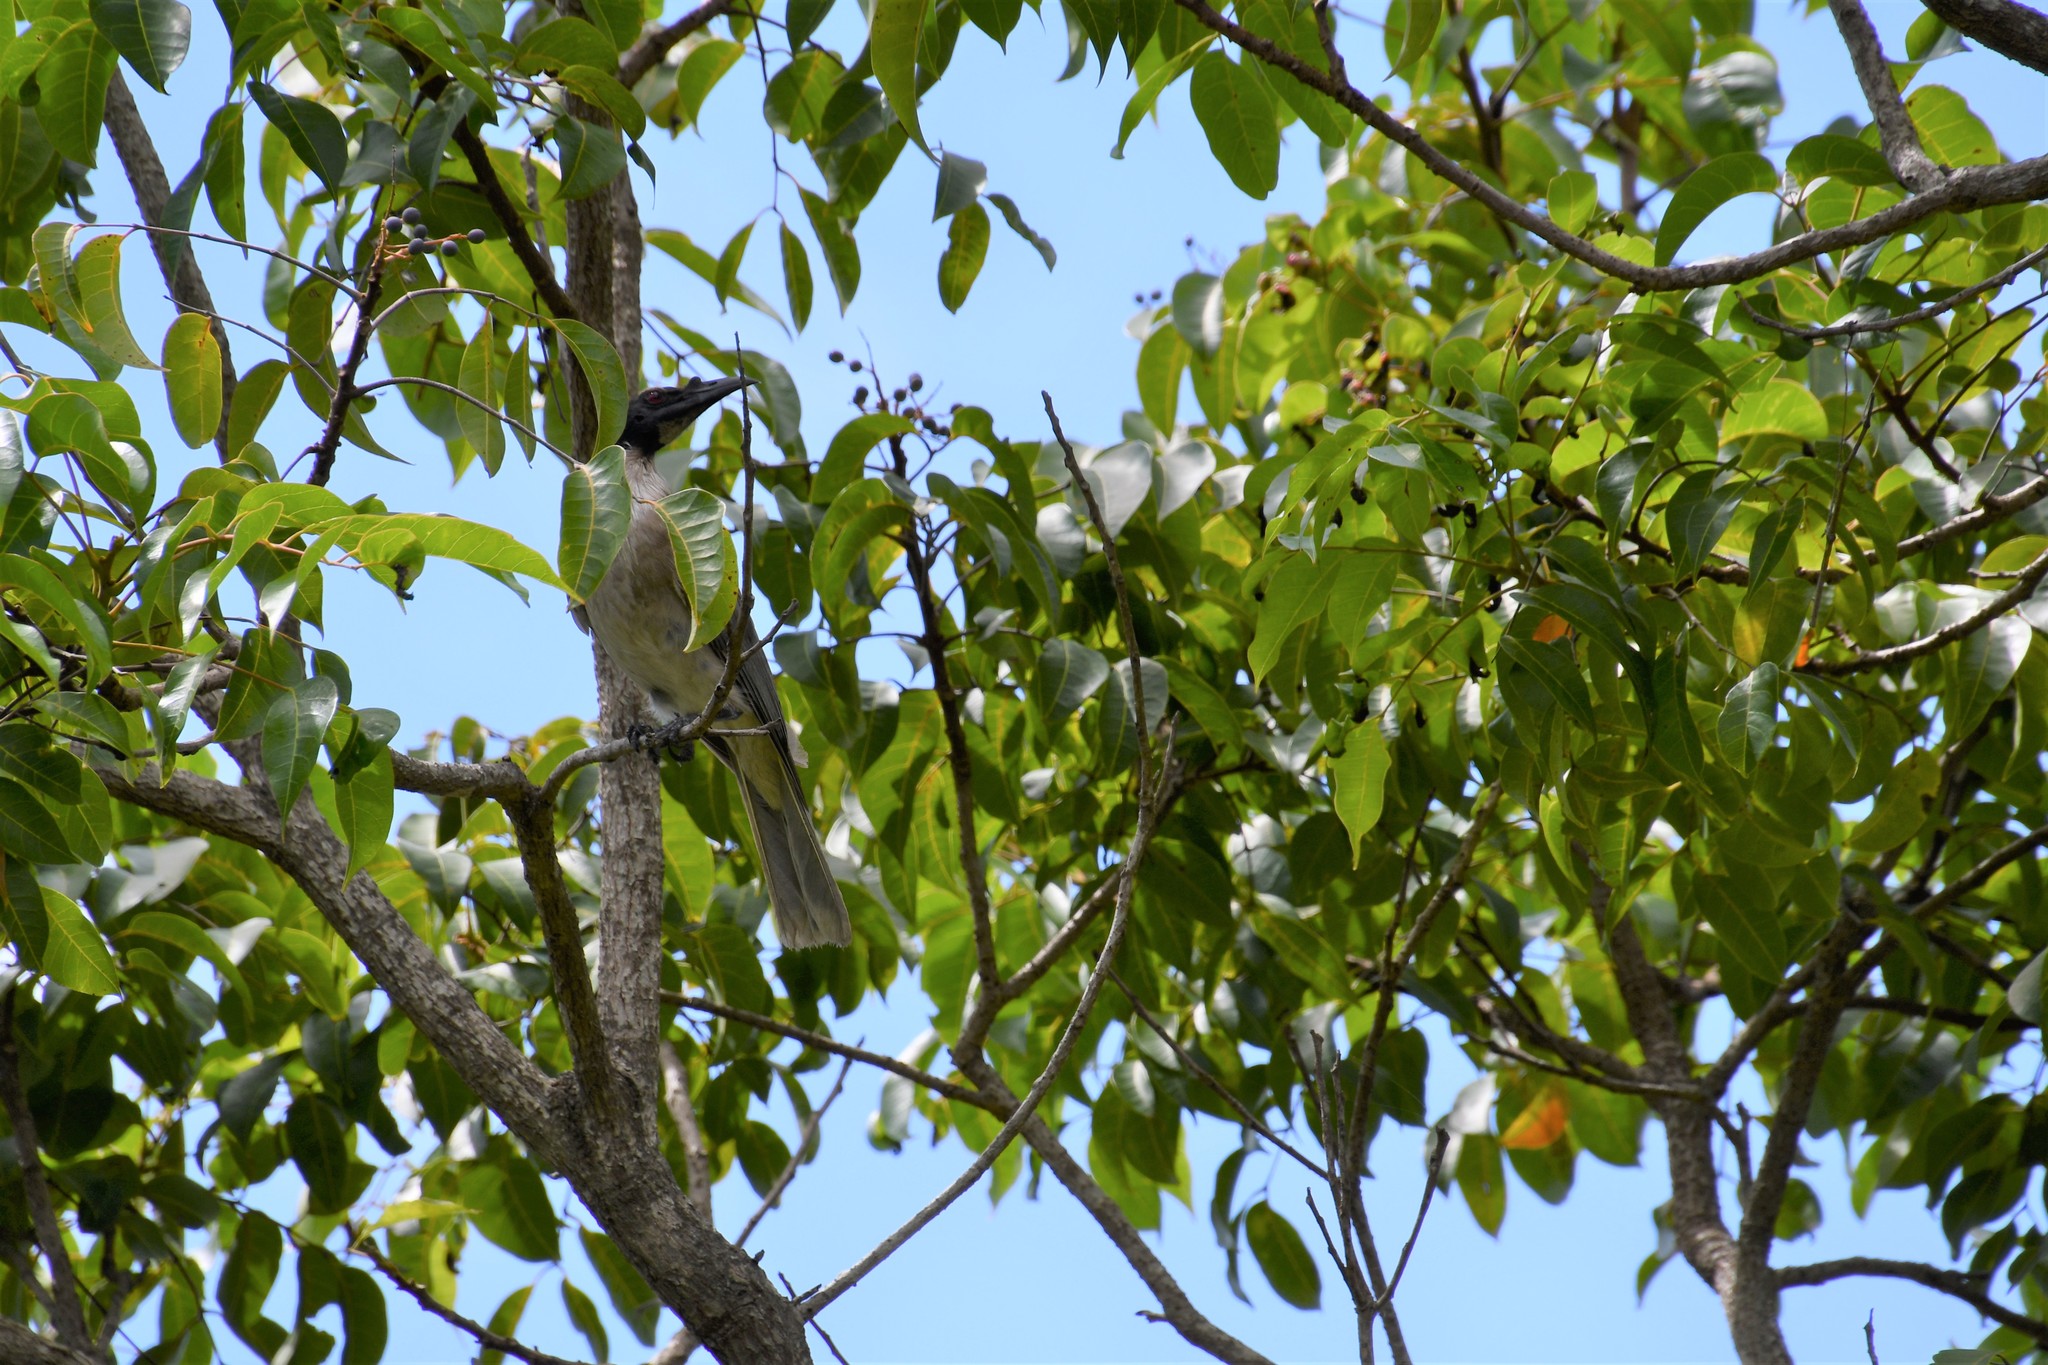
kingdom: Animalia
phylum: Chordata
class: Aves
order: Passeriformes
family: Meliphagidae
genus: Philemon
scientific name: Philemon corniculatus
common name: Noisy friarbird
